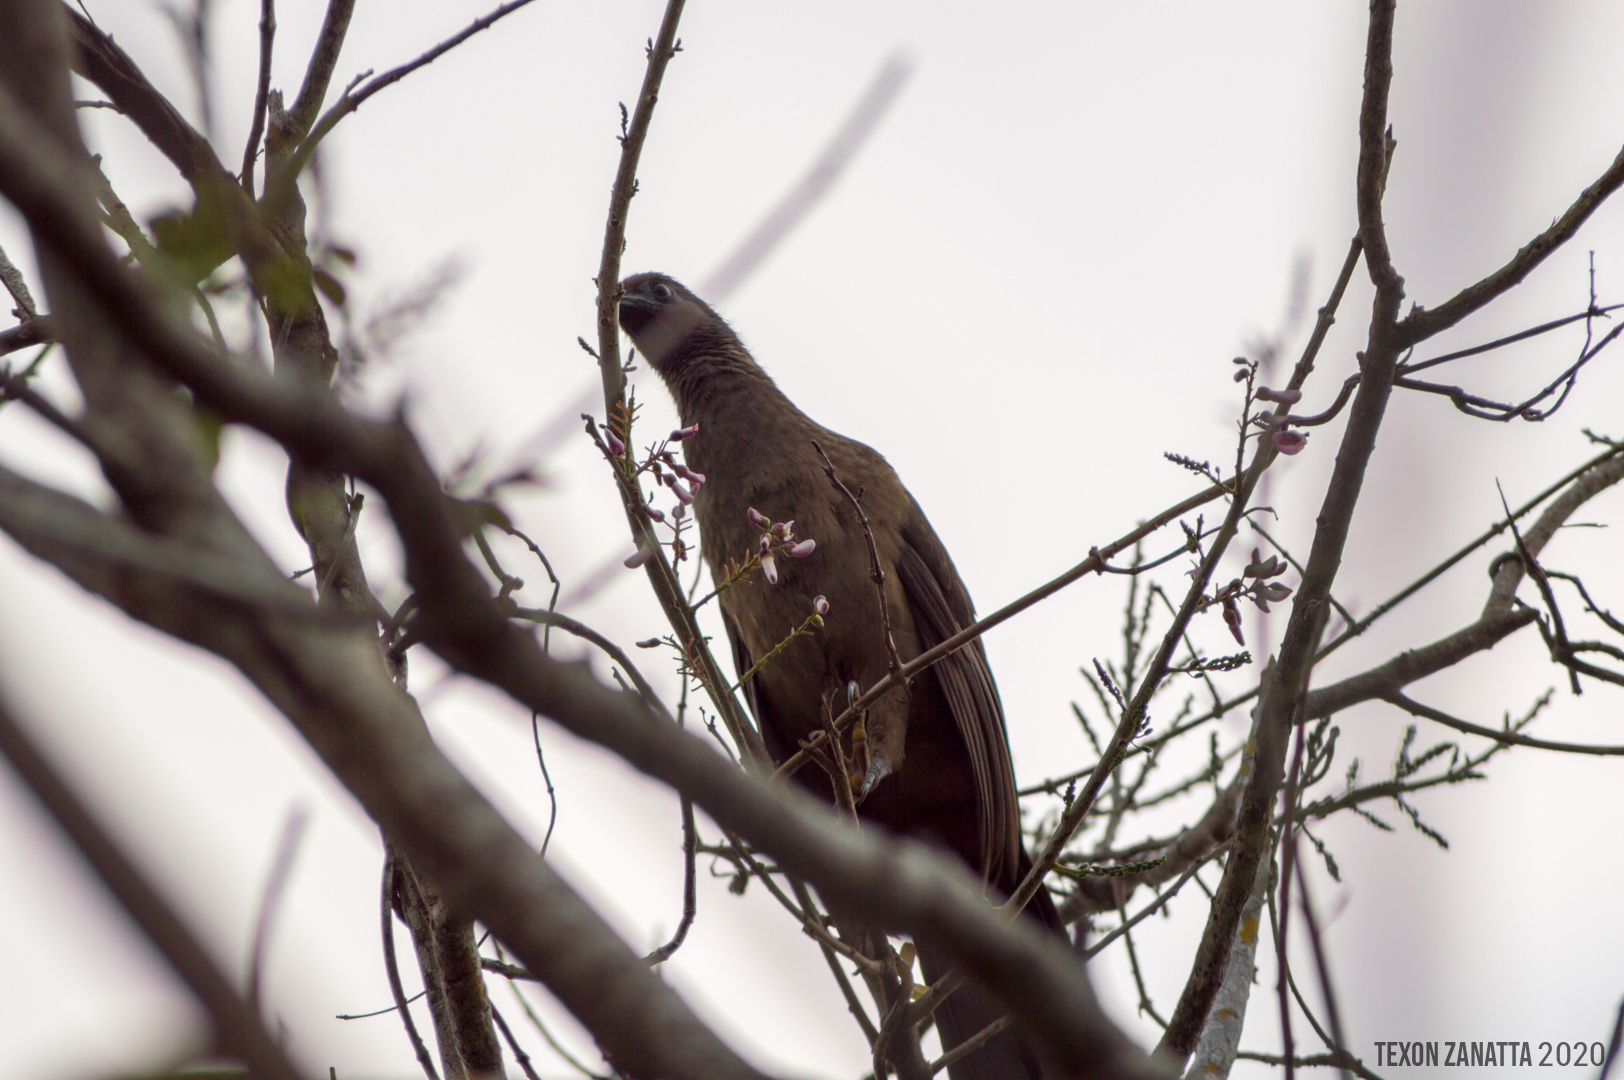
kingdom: Animalia
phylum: Chordata
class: Aves
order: Galliformes
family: Cracidae
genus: Ortalis
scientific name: Ortalis vetula
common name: Plain chachalaca
